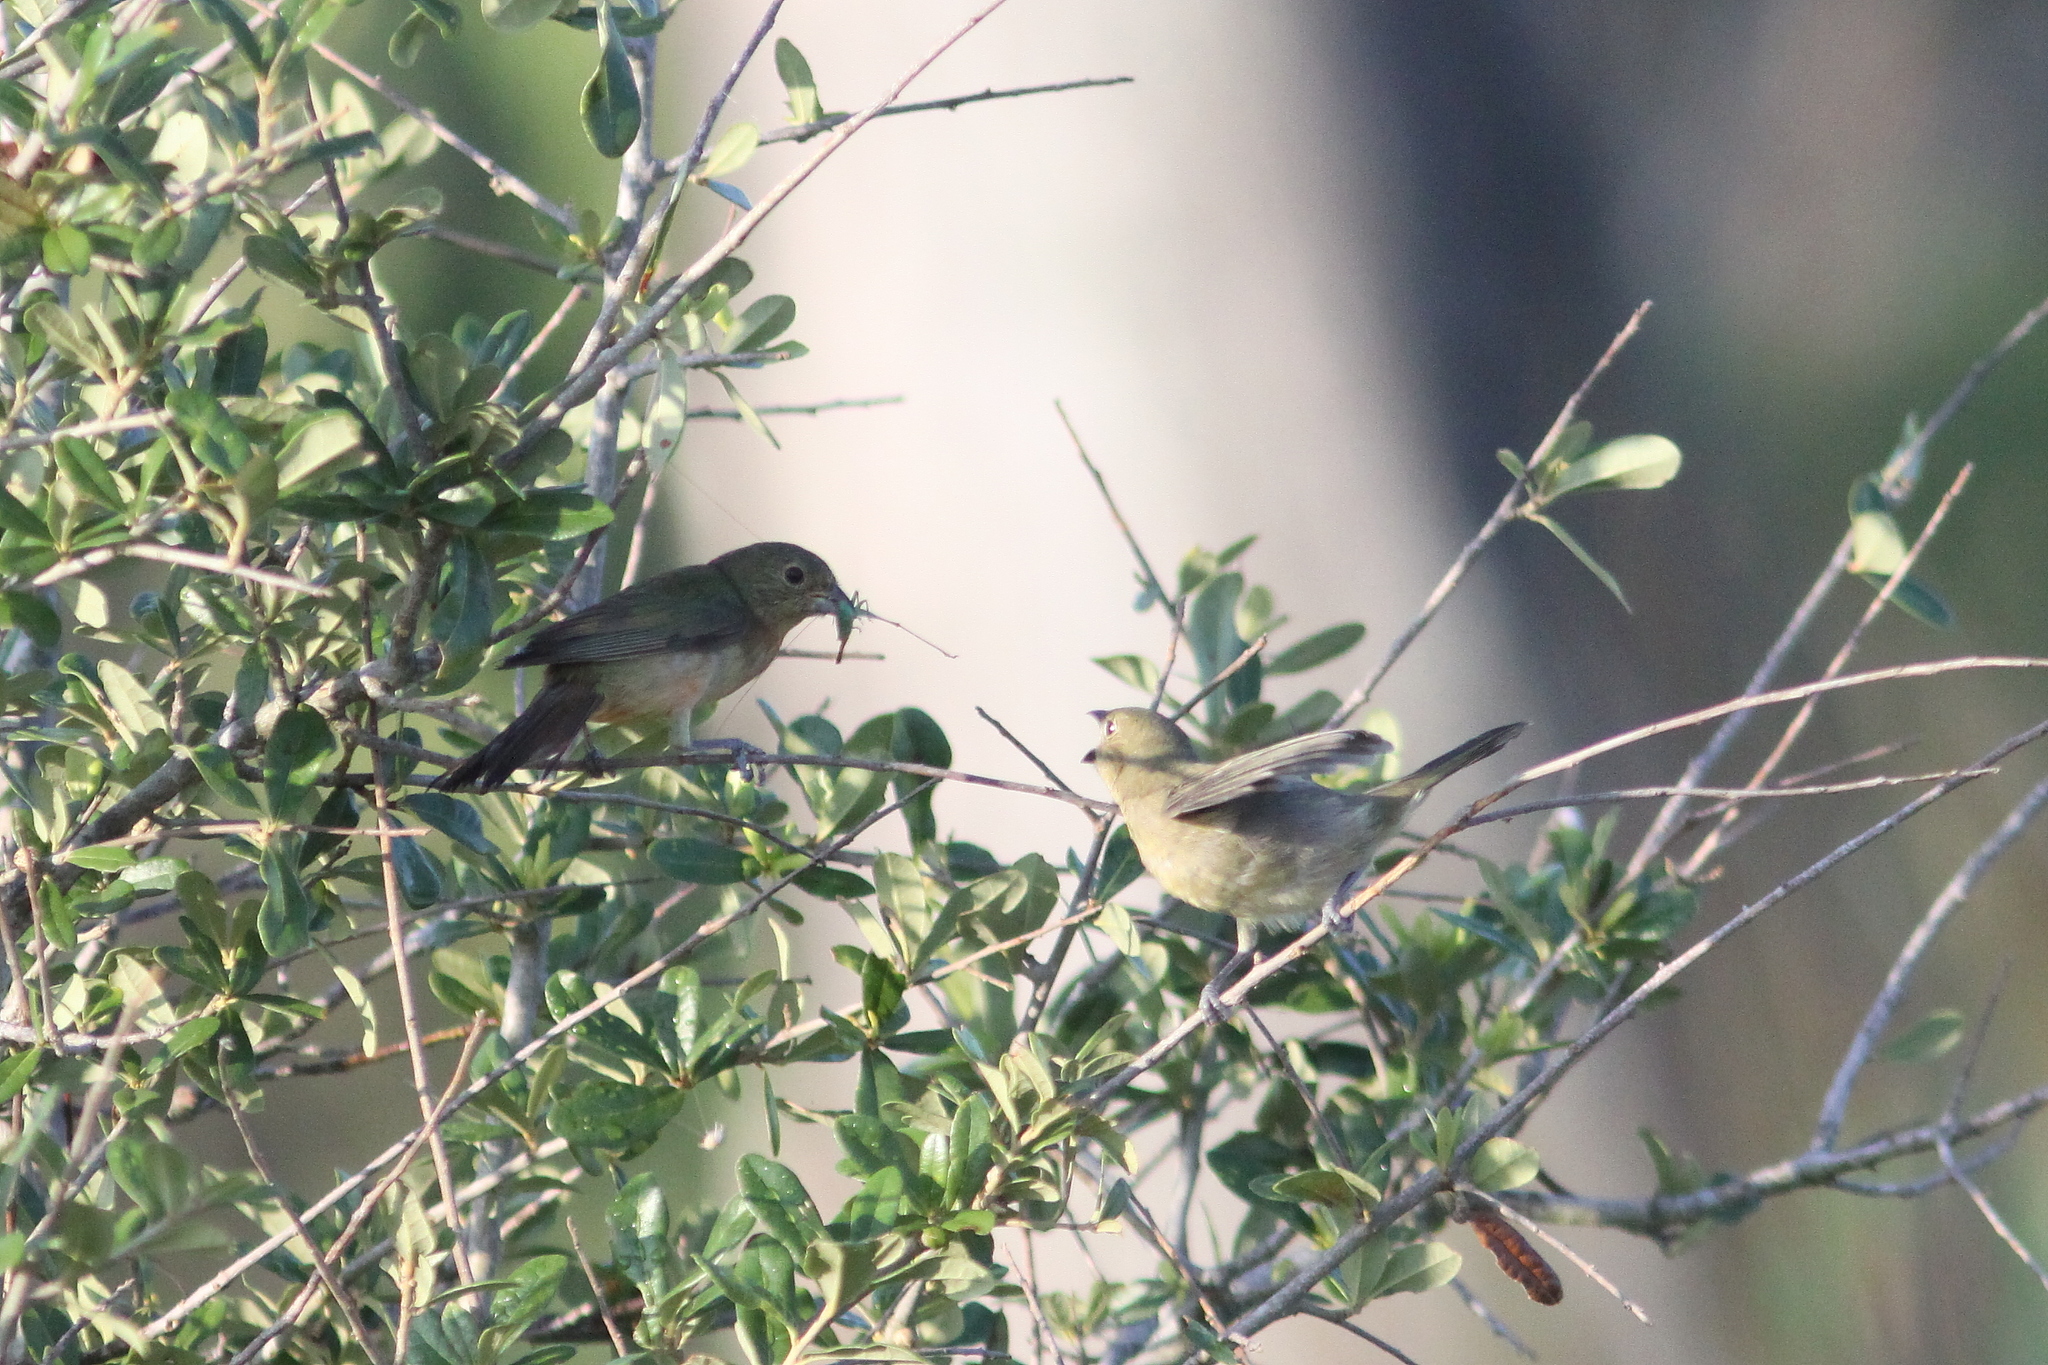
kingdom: Animalia
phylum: Chordata
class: Aves
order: Passeriformes
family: Cardinalidae
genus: Passerina
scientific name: Passerina ciris
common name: Painted bunting
